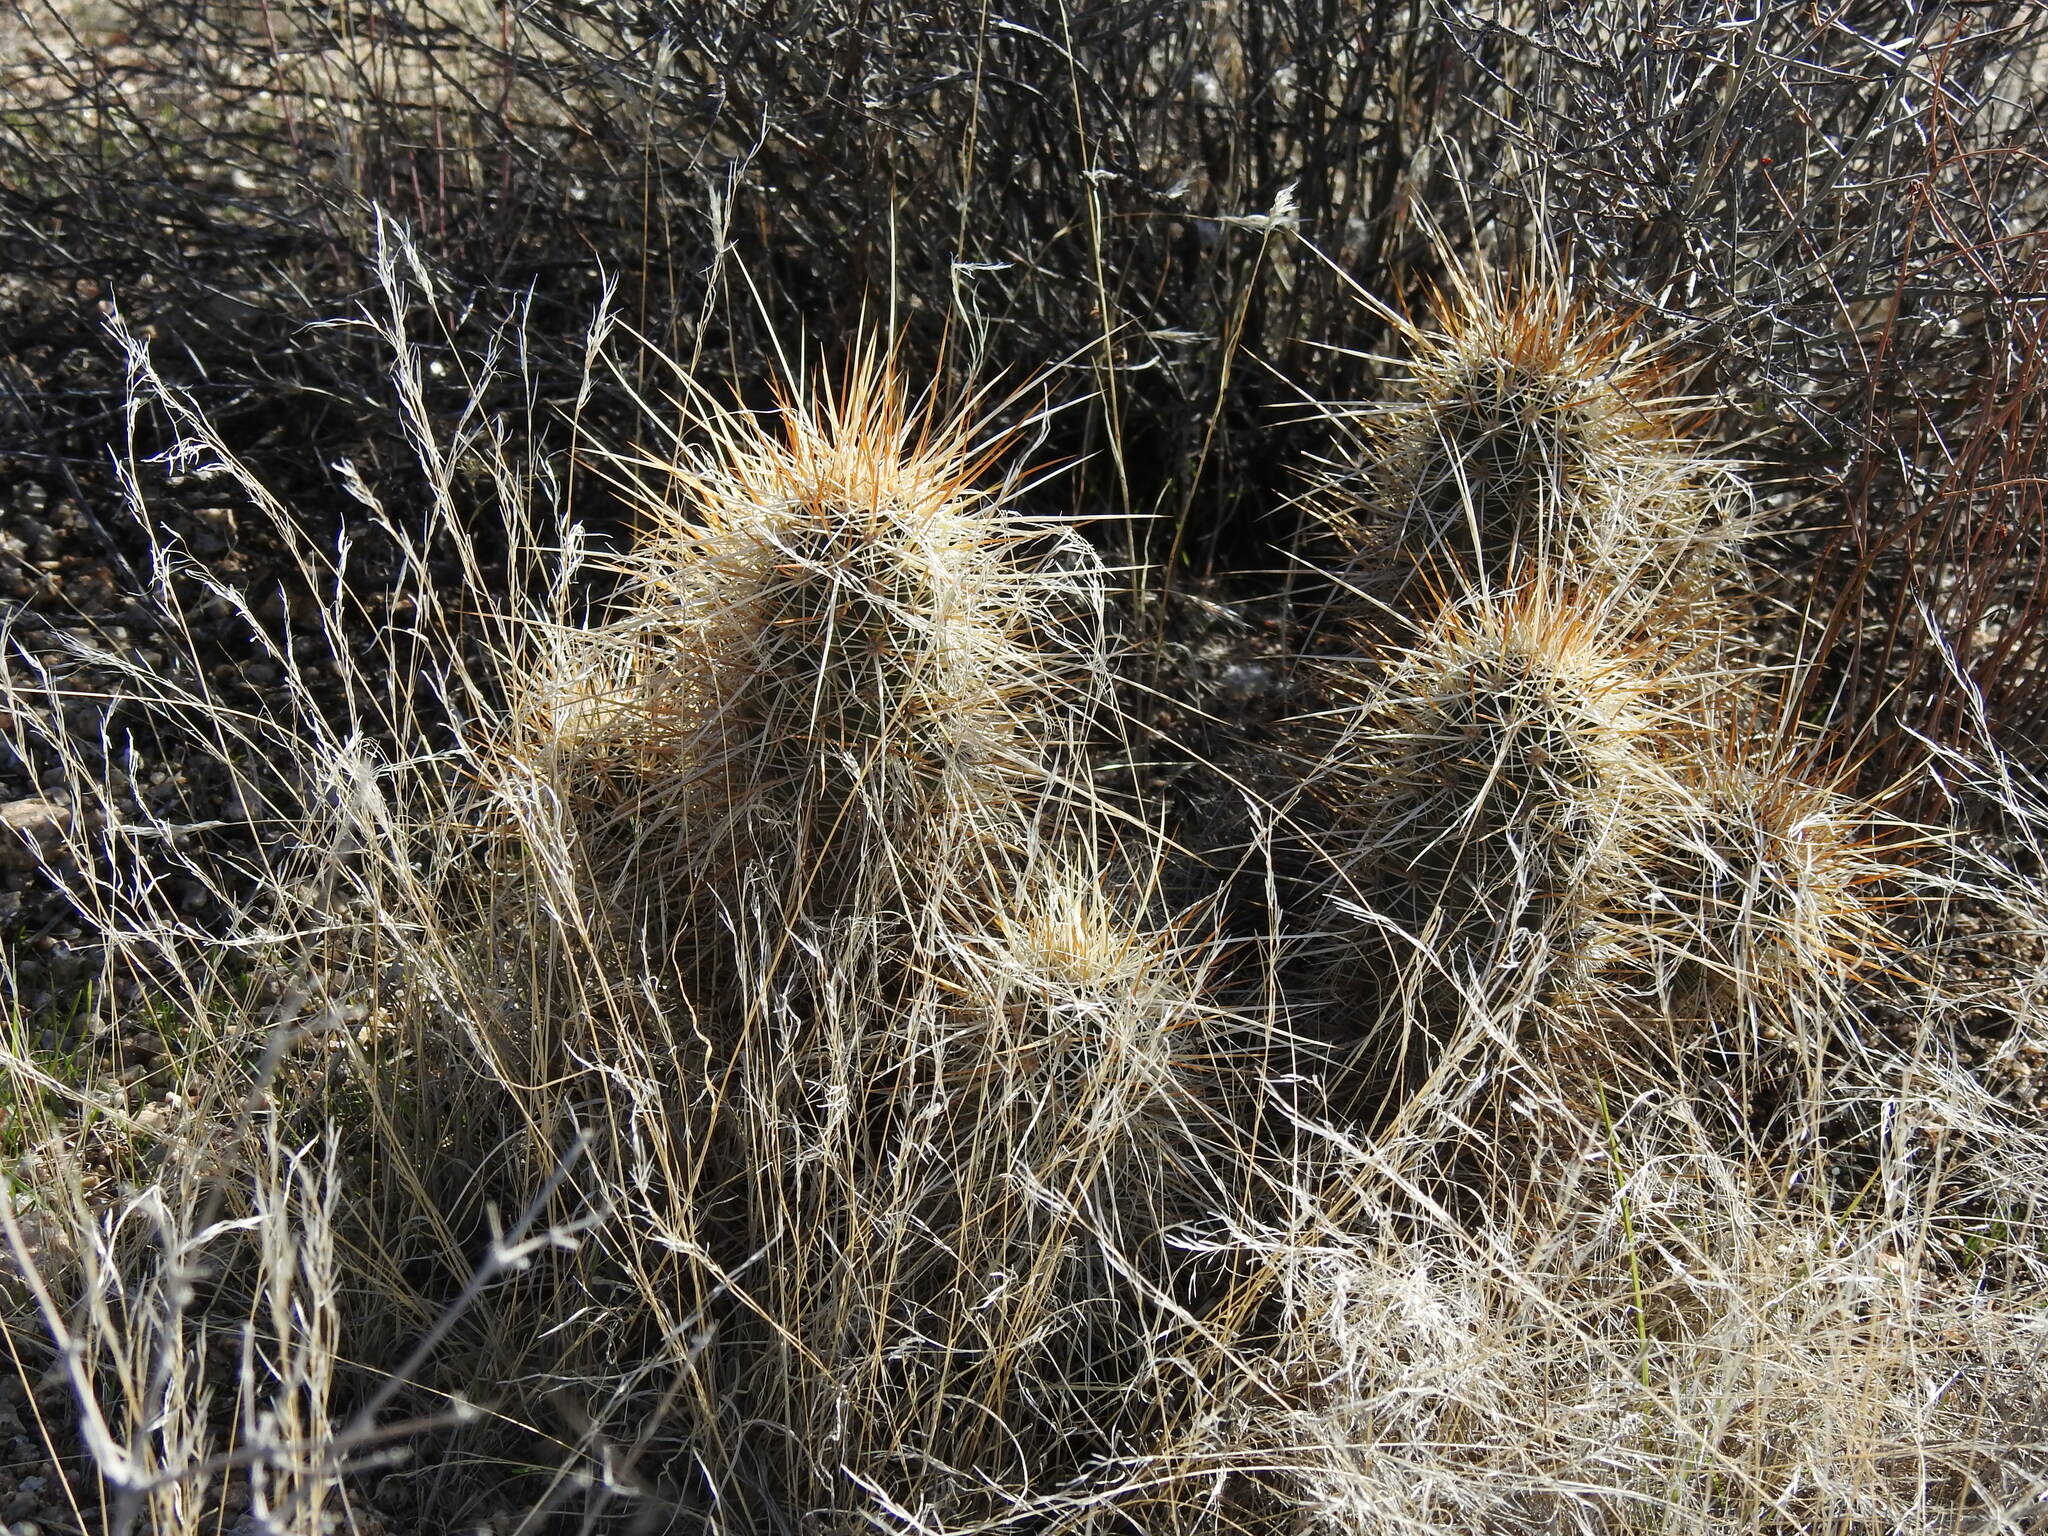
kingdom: Plantae
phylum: Tracheophyta
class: Magnoliopsida
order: Caryophyllales
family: Cactaceae
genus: Echinocereus
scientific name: Echinocereus engelmannii
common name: Engelmann's hedgehog cactus
